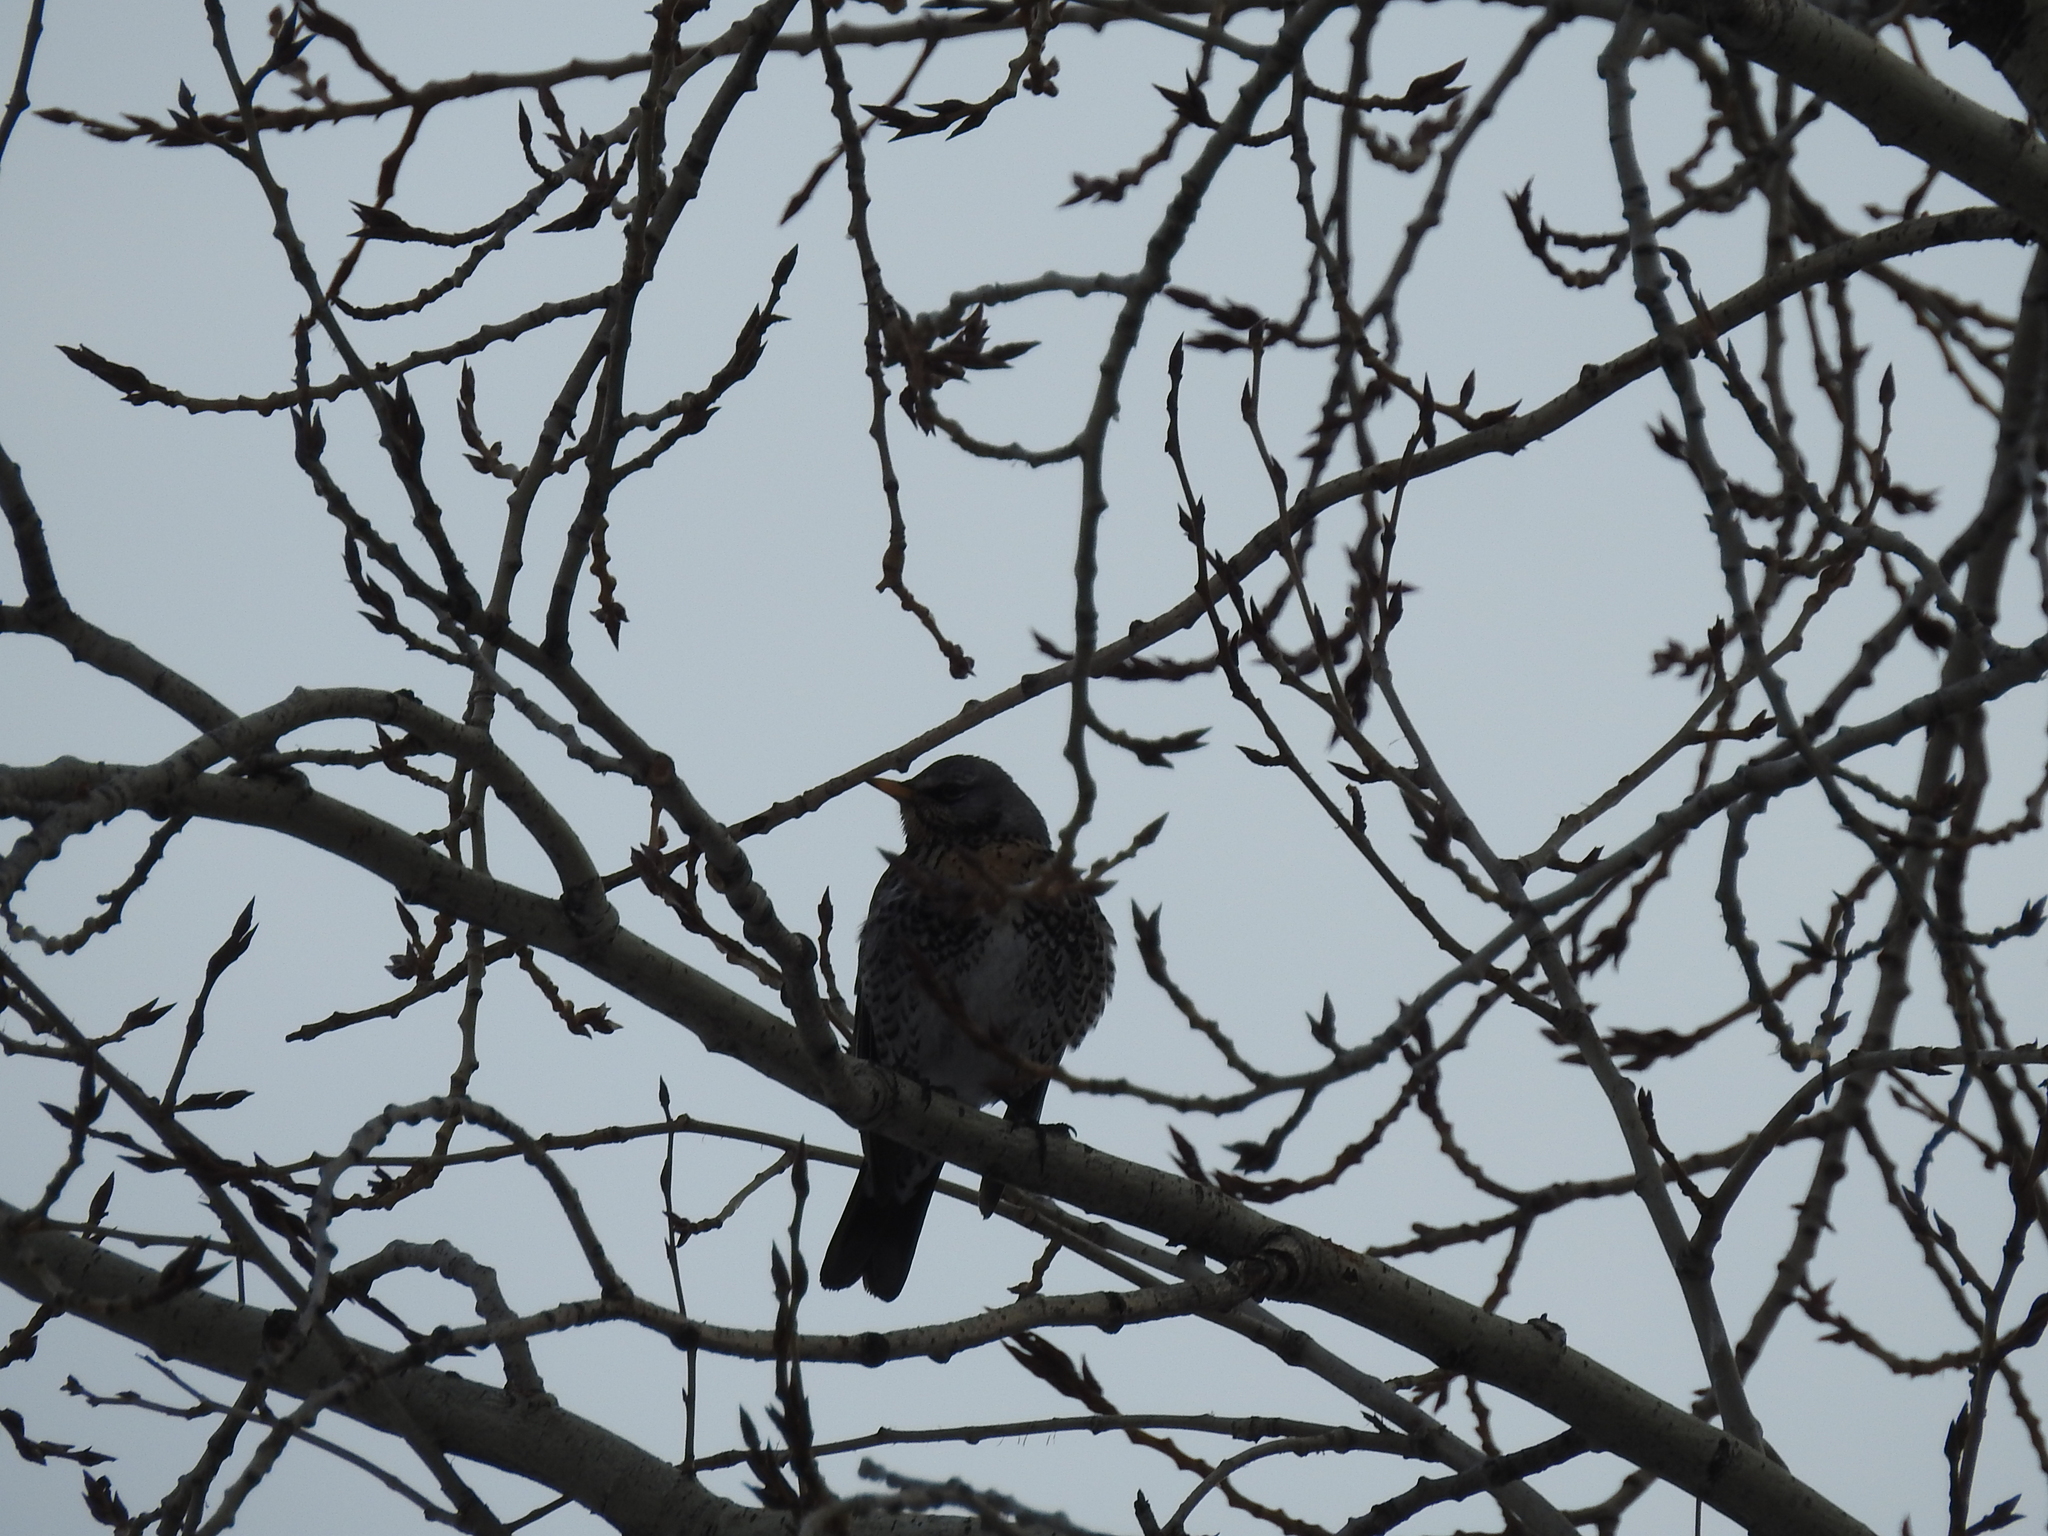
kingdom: Animalia
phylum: Chordata
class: Aves
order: Passeriformes
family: Turdidae
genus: Turdus
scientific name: Turdus pilaris
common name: Fieldfare
